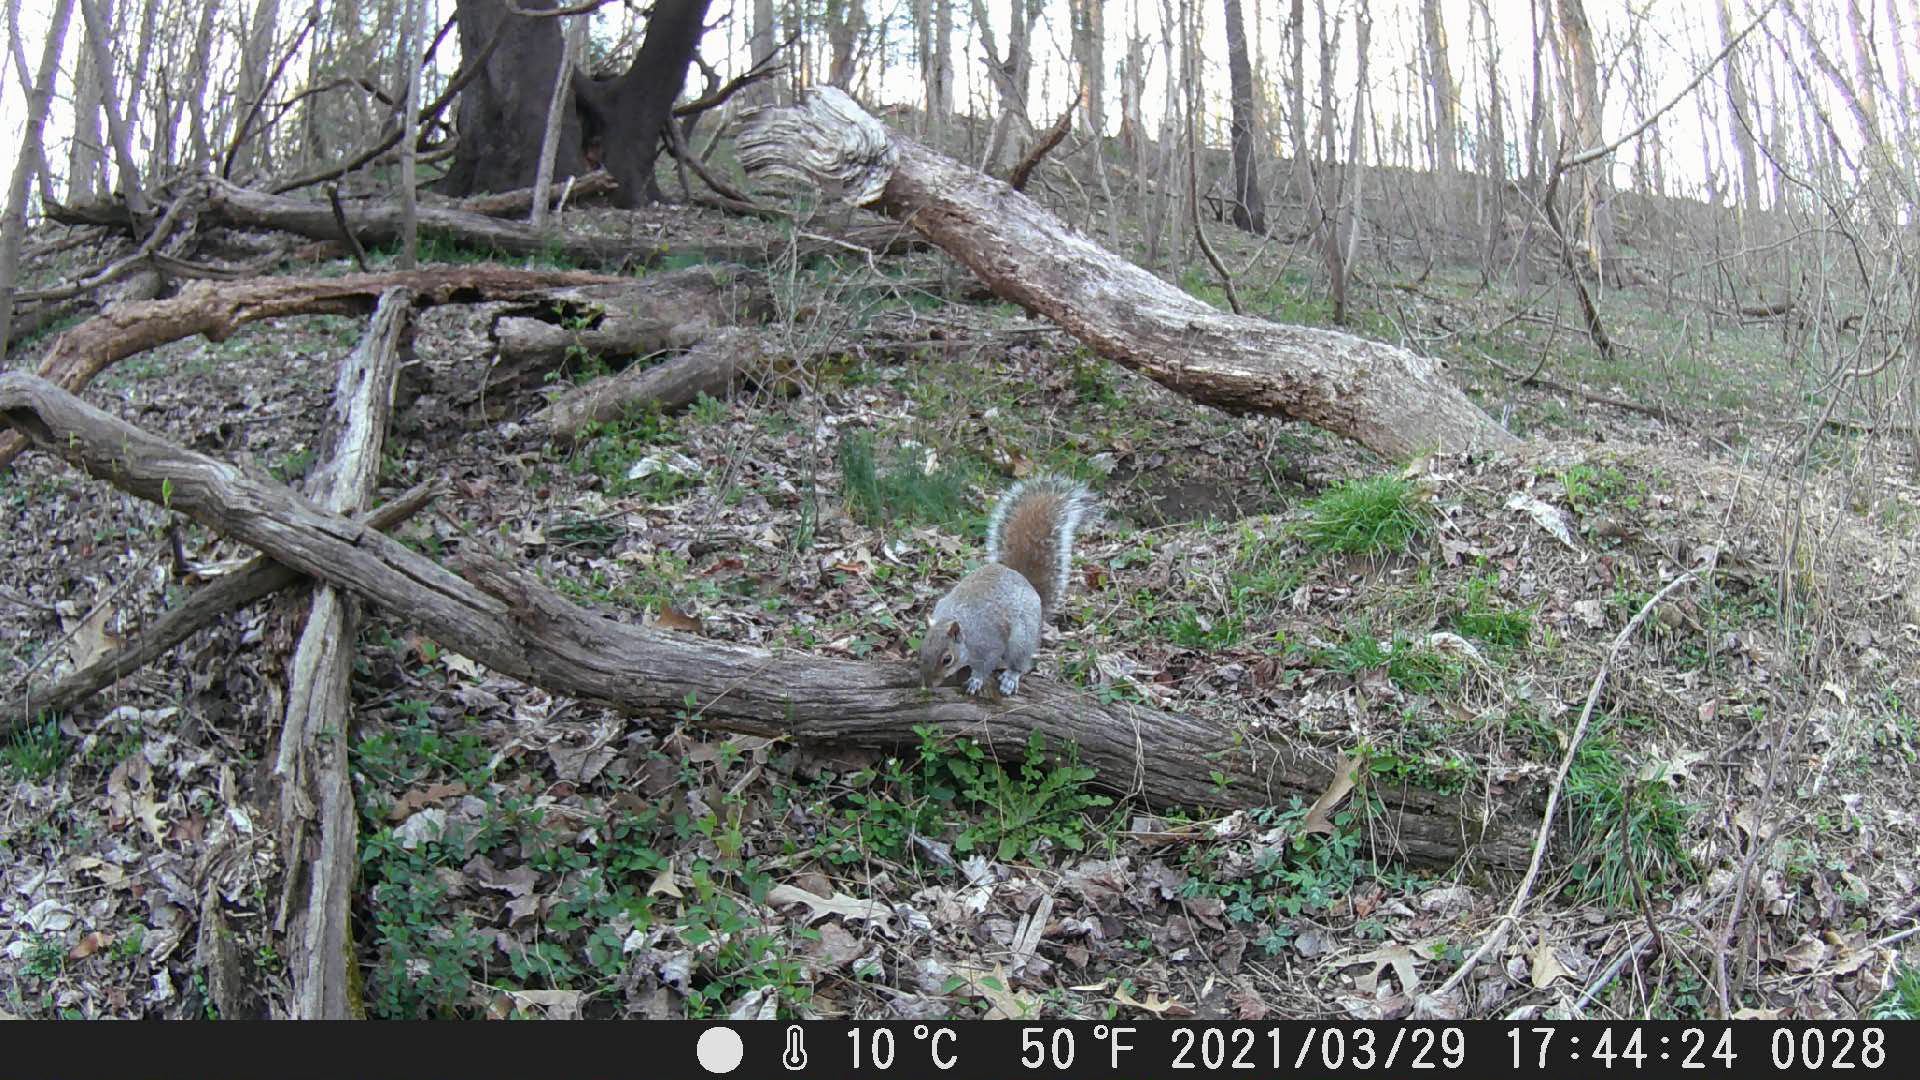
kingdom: Animalia
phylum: Chordata
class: Mammalia
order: Rodentia
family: Sciuridae
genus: Sciurus
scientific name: Sciurus carolinensis
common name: Eastern gray squirrel
